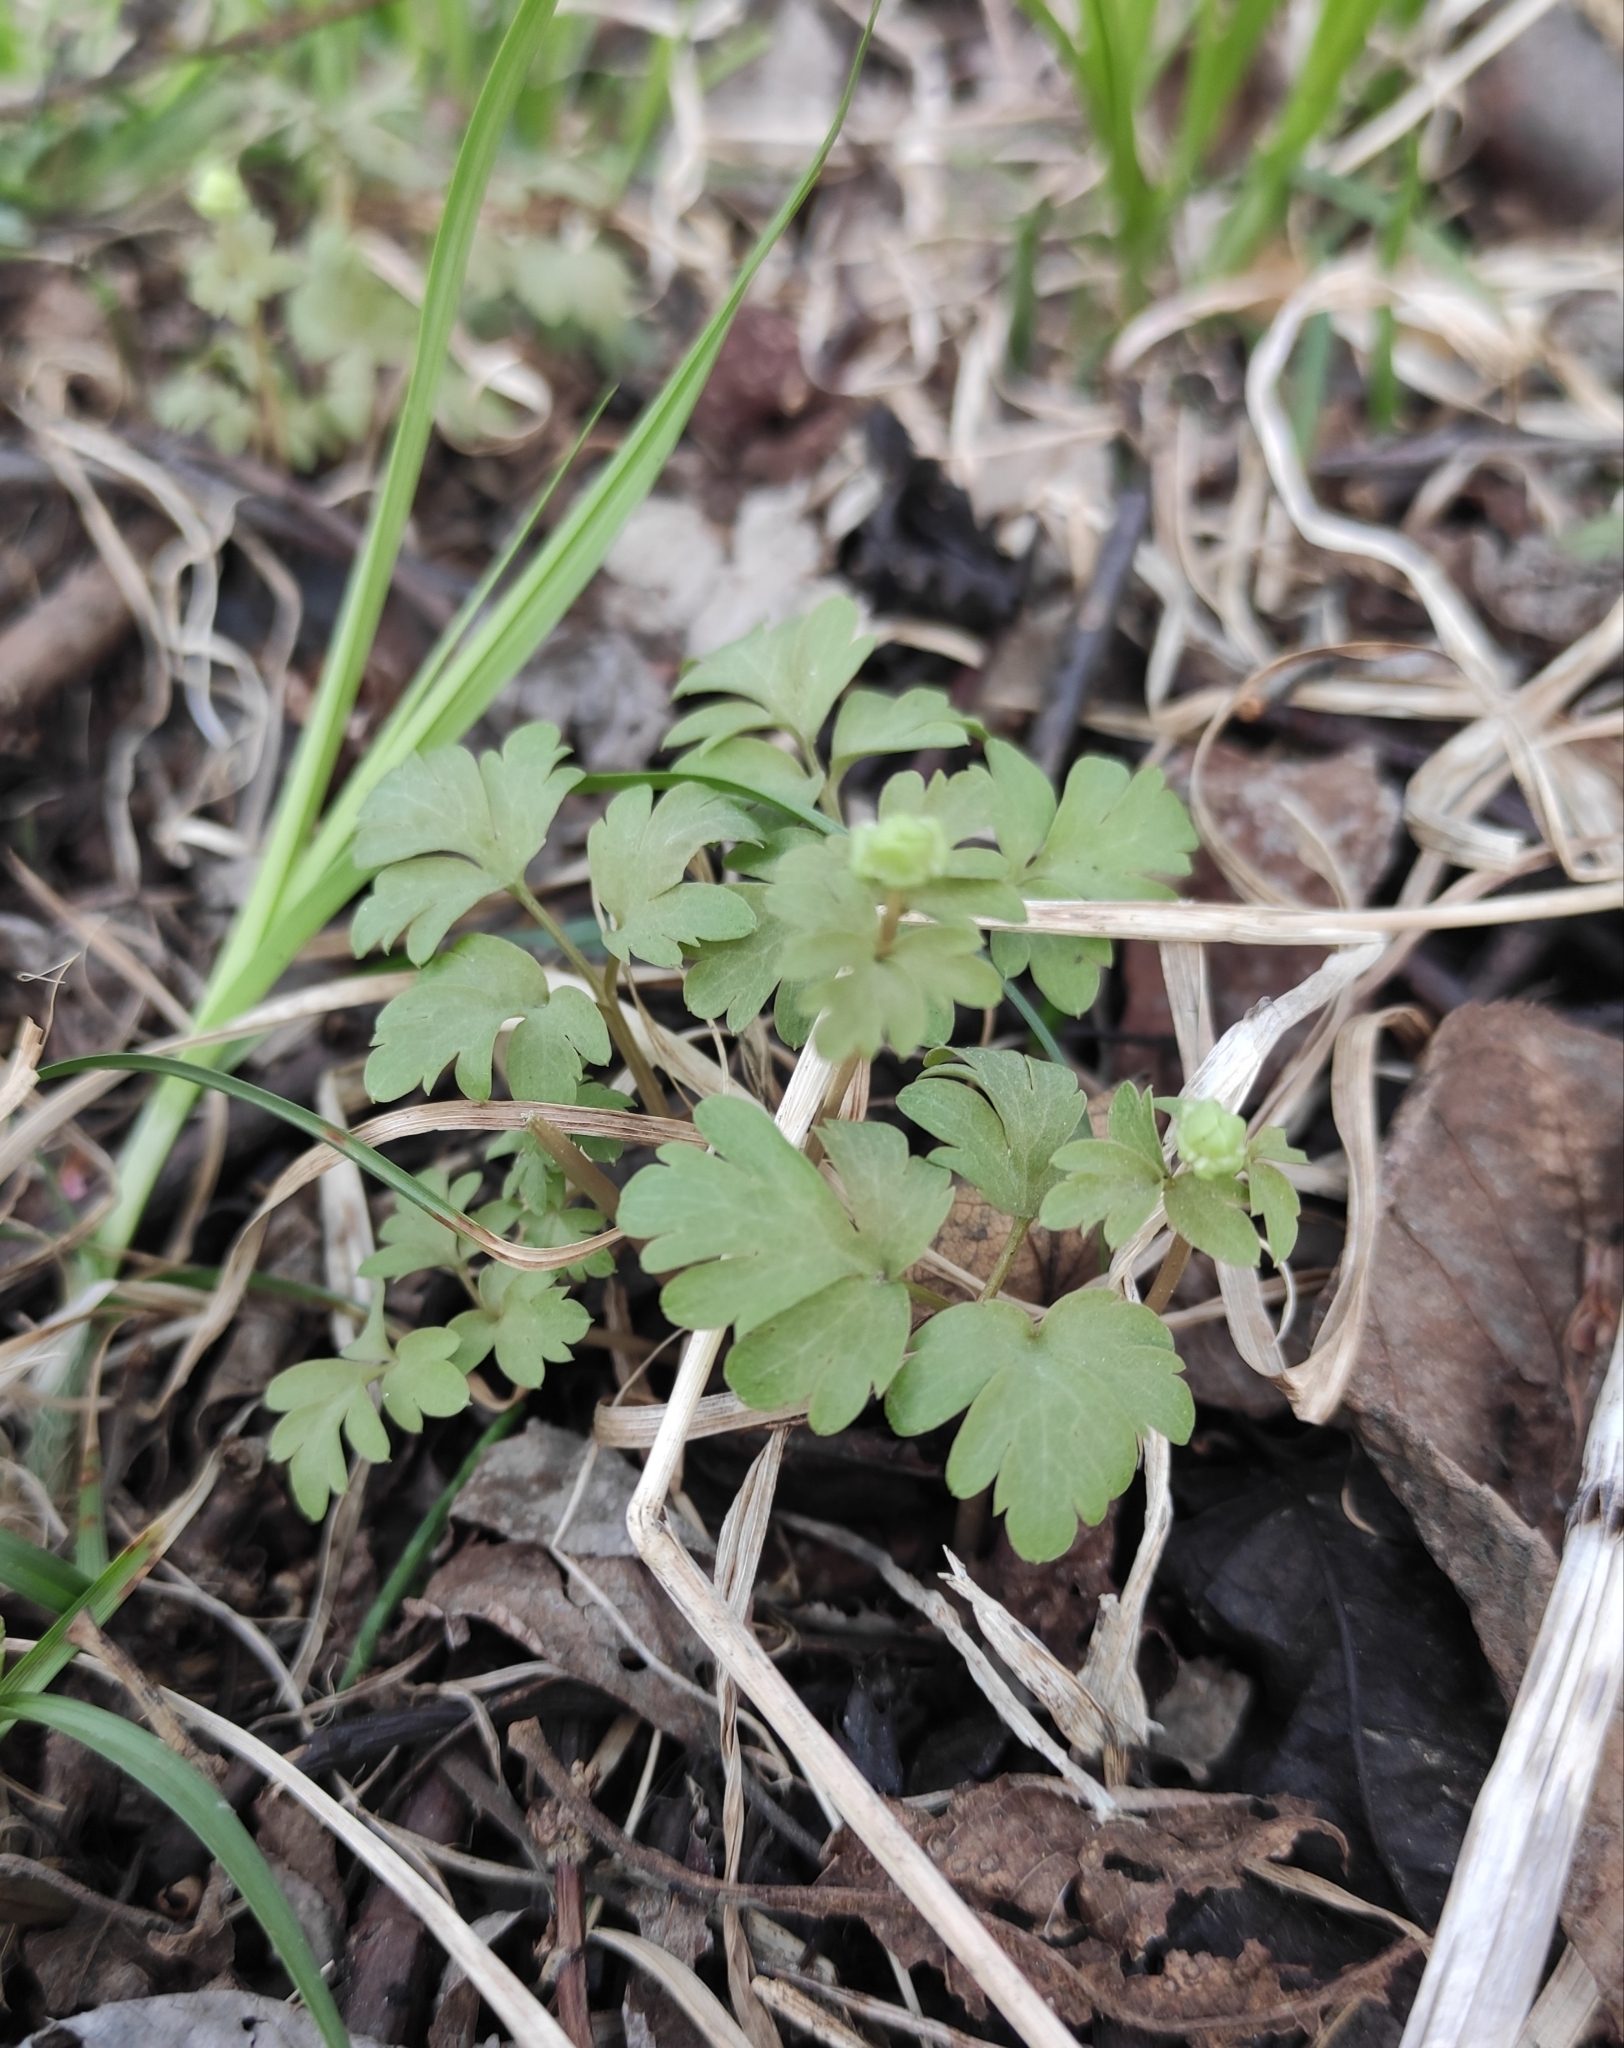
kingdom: Plantae
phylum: Tracheophyta
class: Magnoliopsida
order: Dipsacales
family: Viburnaceae
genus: Adoxa
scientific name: Adoxa moschatellina
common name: Moschatel
